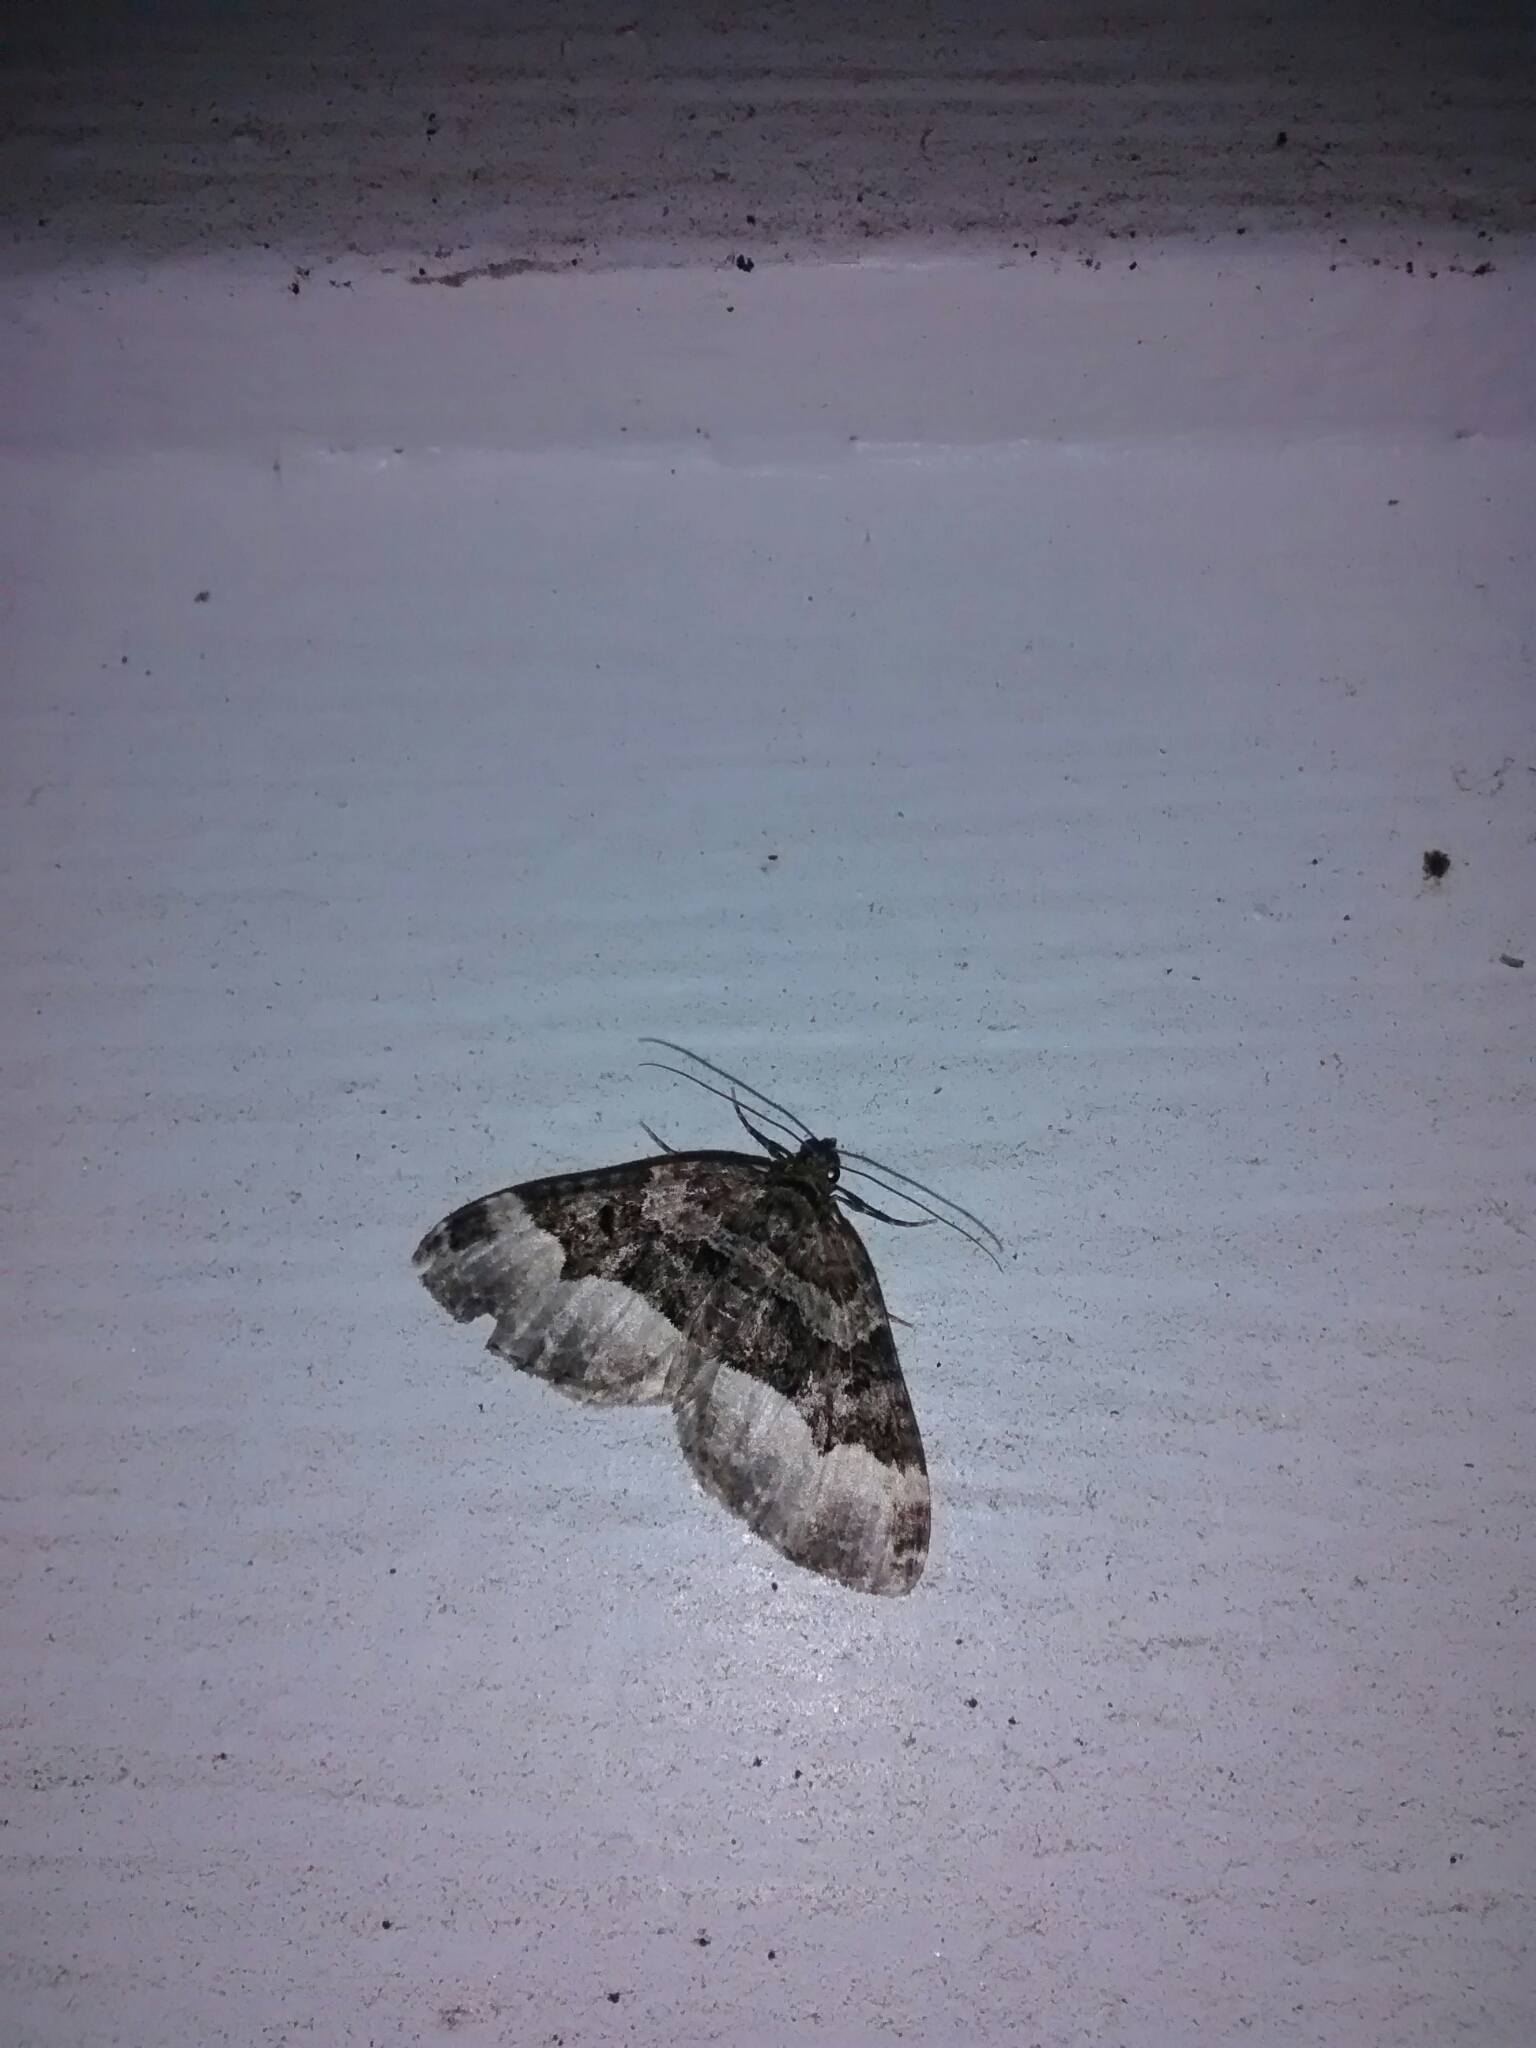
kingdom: Animalia
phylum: Arthropoda
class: Insecta
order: Lepidoptera
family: Geometridae
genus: Euphyia
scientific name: Euphyia intermediata
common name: Sharp-angled carpet
